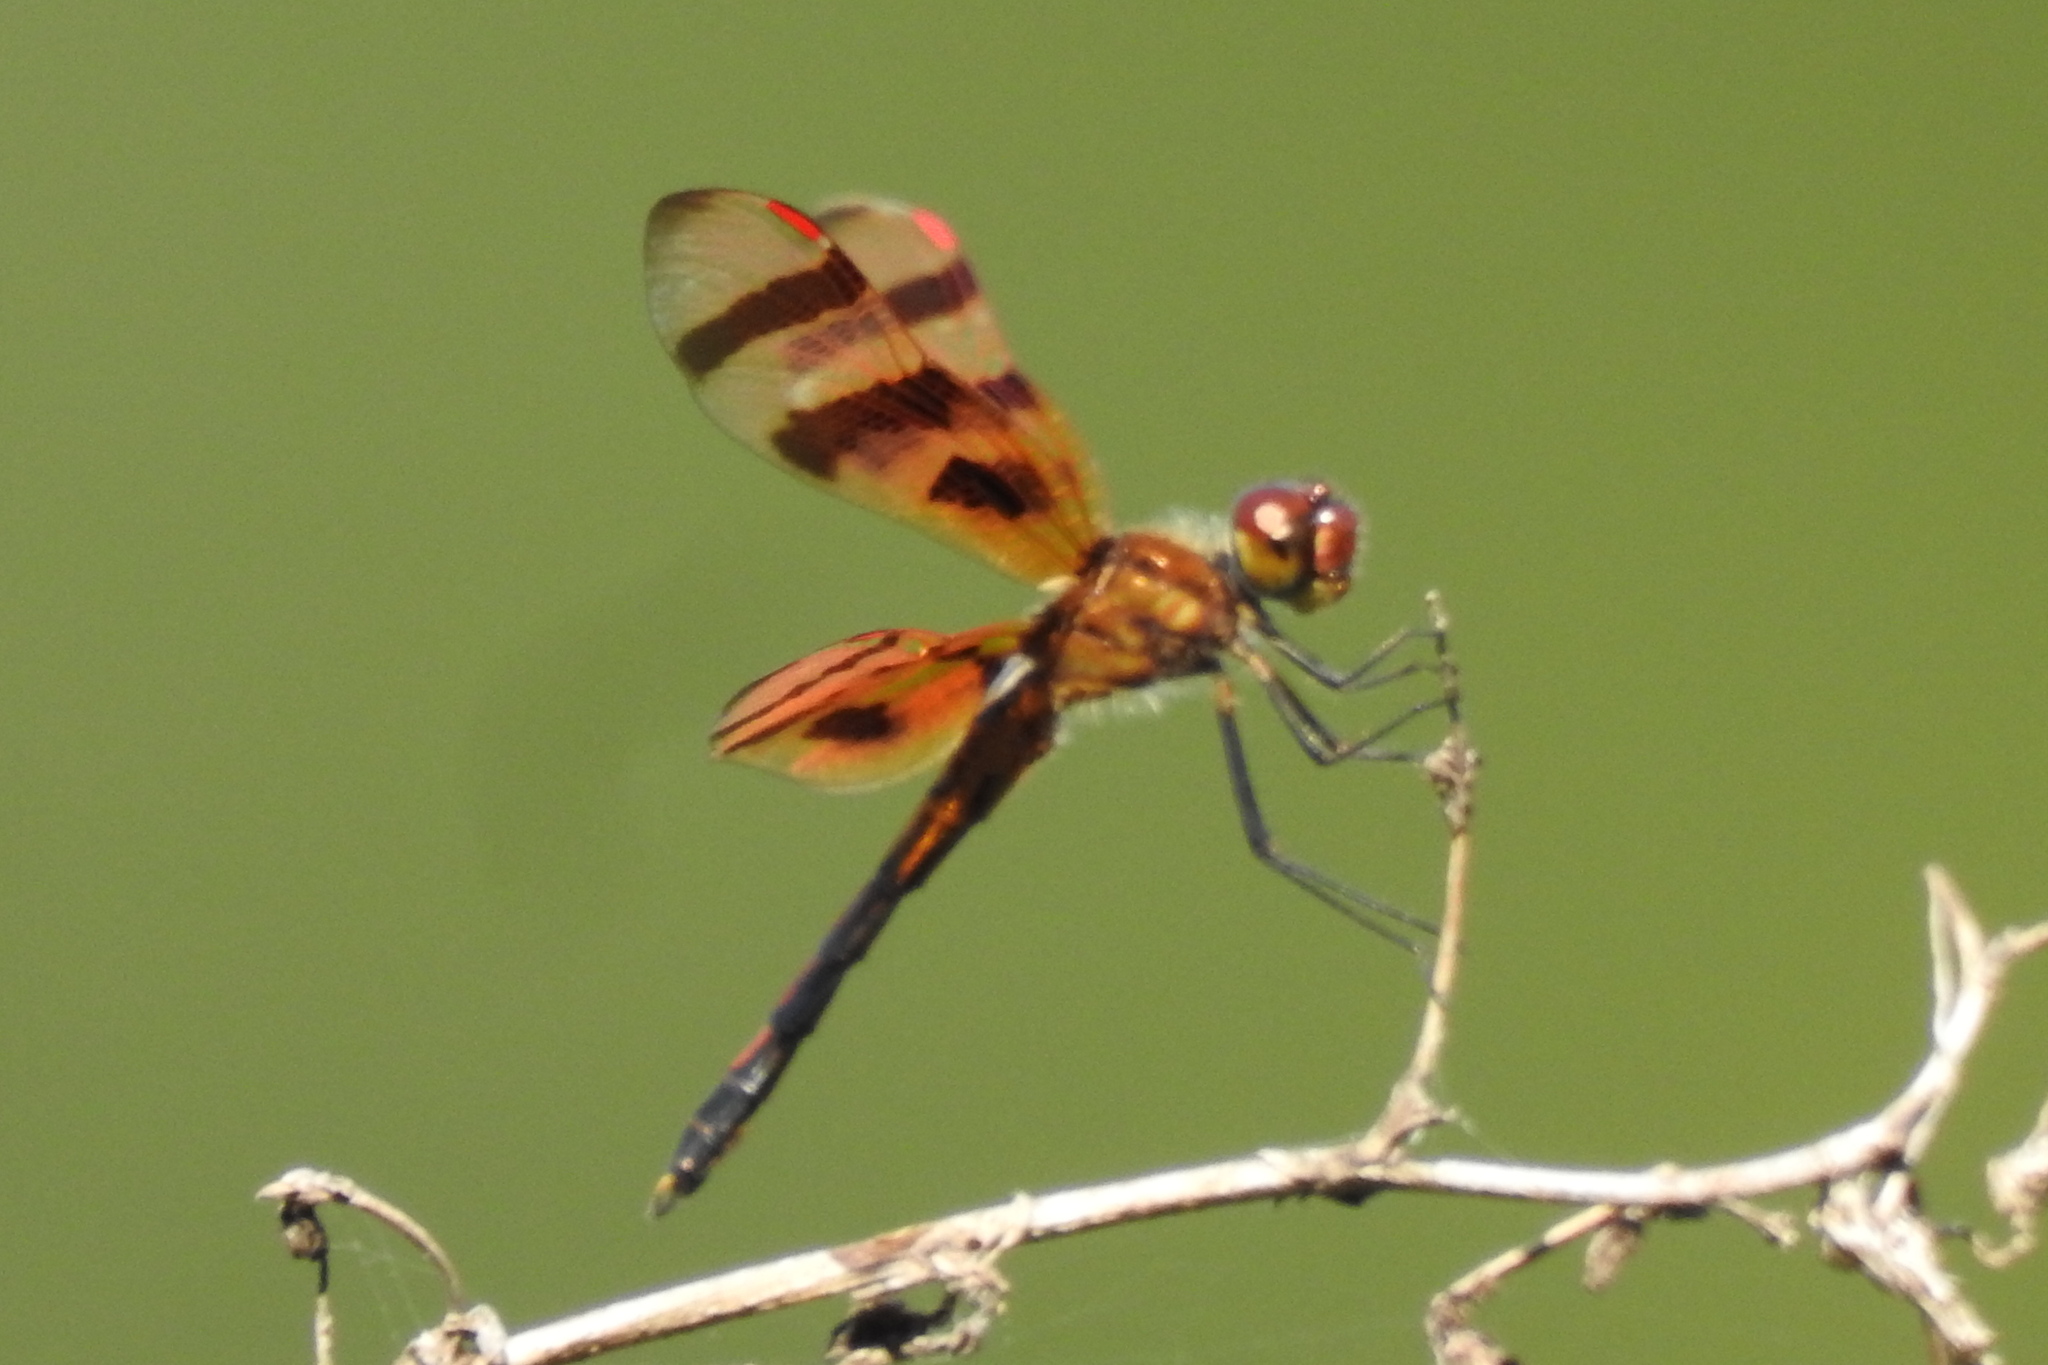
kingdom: Animalia
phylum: Arthropoda
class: Insecta
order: Odonata
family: Libellulidae
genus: Celithemis
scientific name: Celithemis eponina
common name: Halloween pennant
